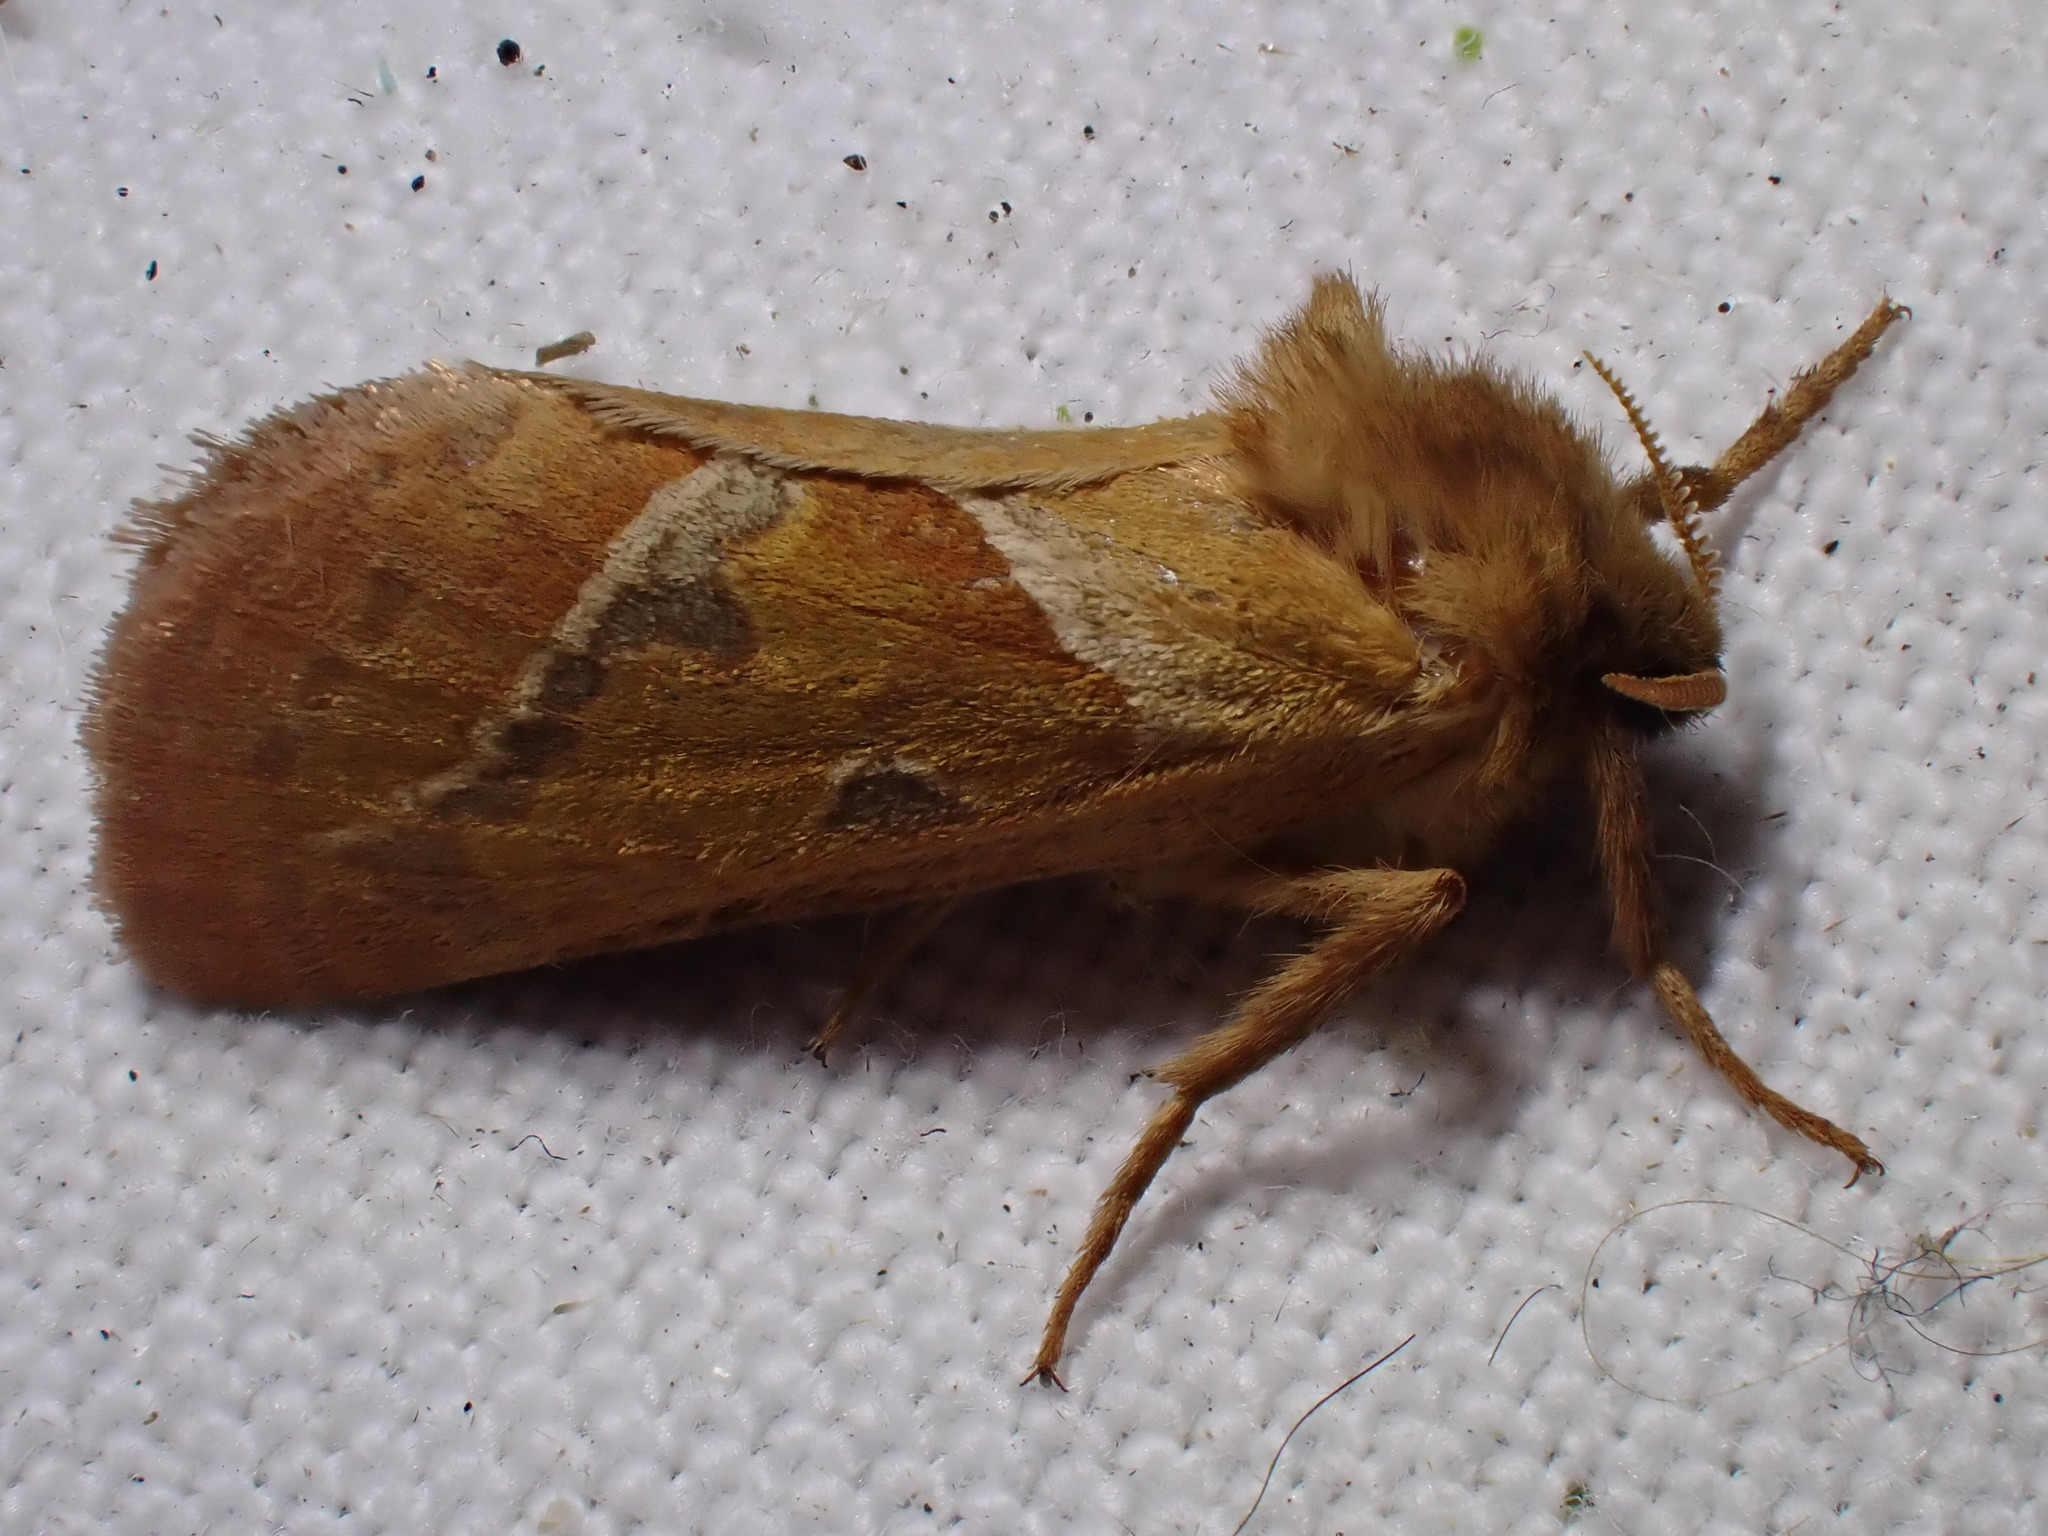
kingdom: Animalia
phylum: Arthropoda
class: Insecta
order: Lepidoptera
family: Hepialidae
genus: Triodia
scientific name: Triodia sylvina
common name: Orange swift
